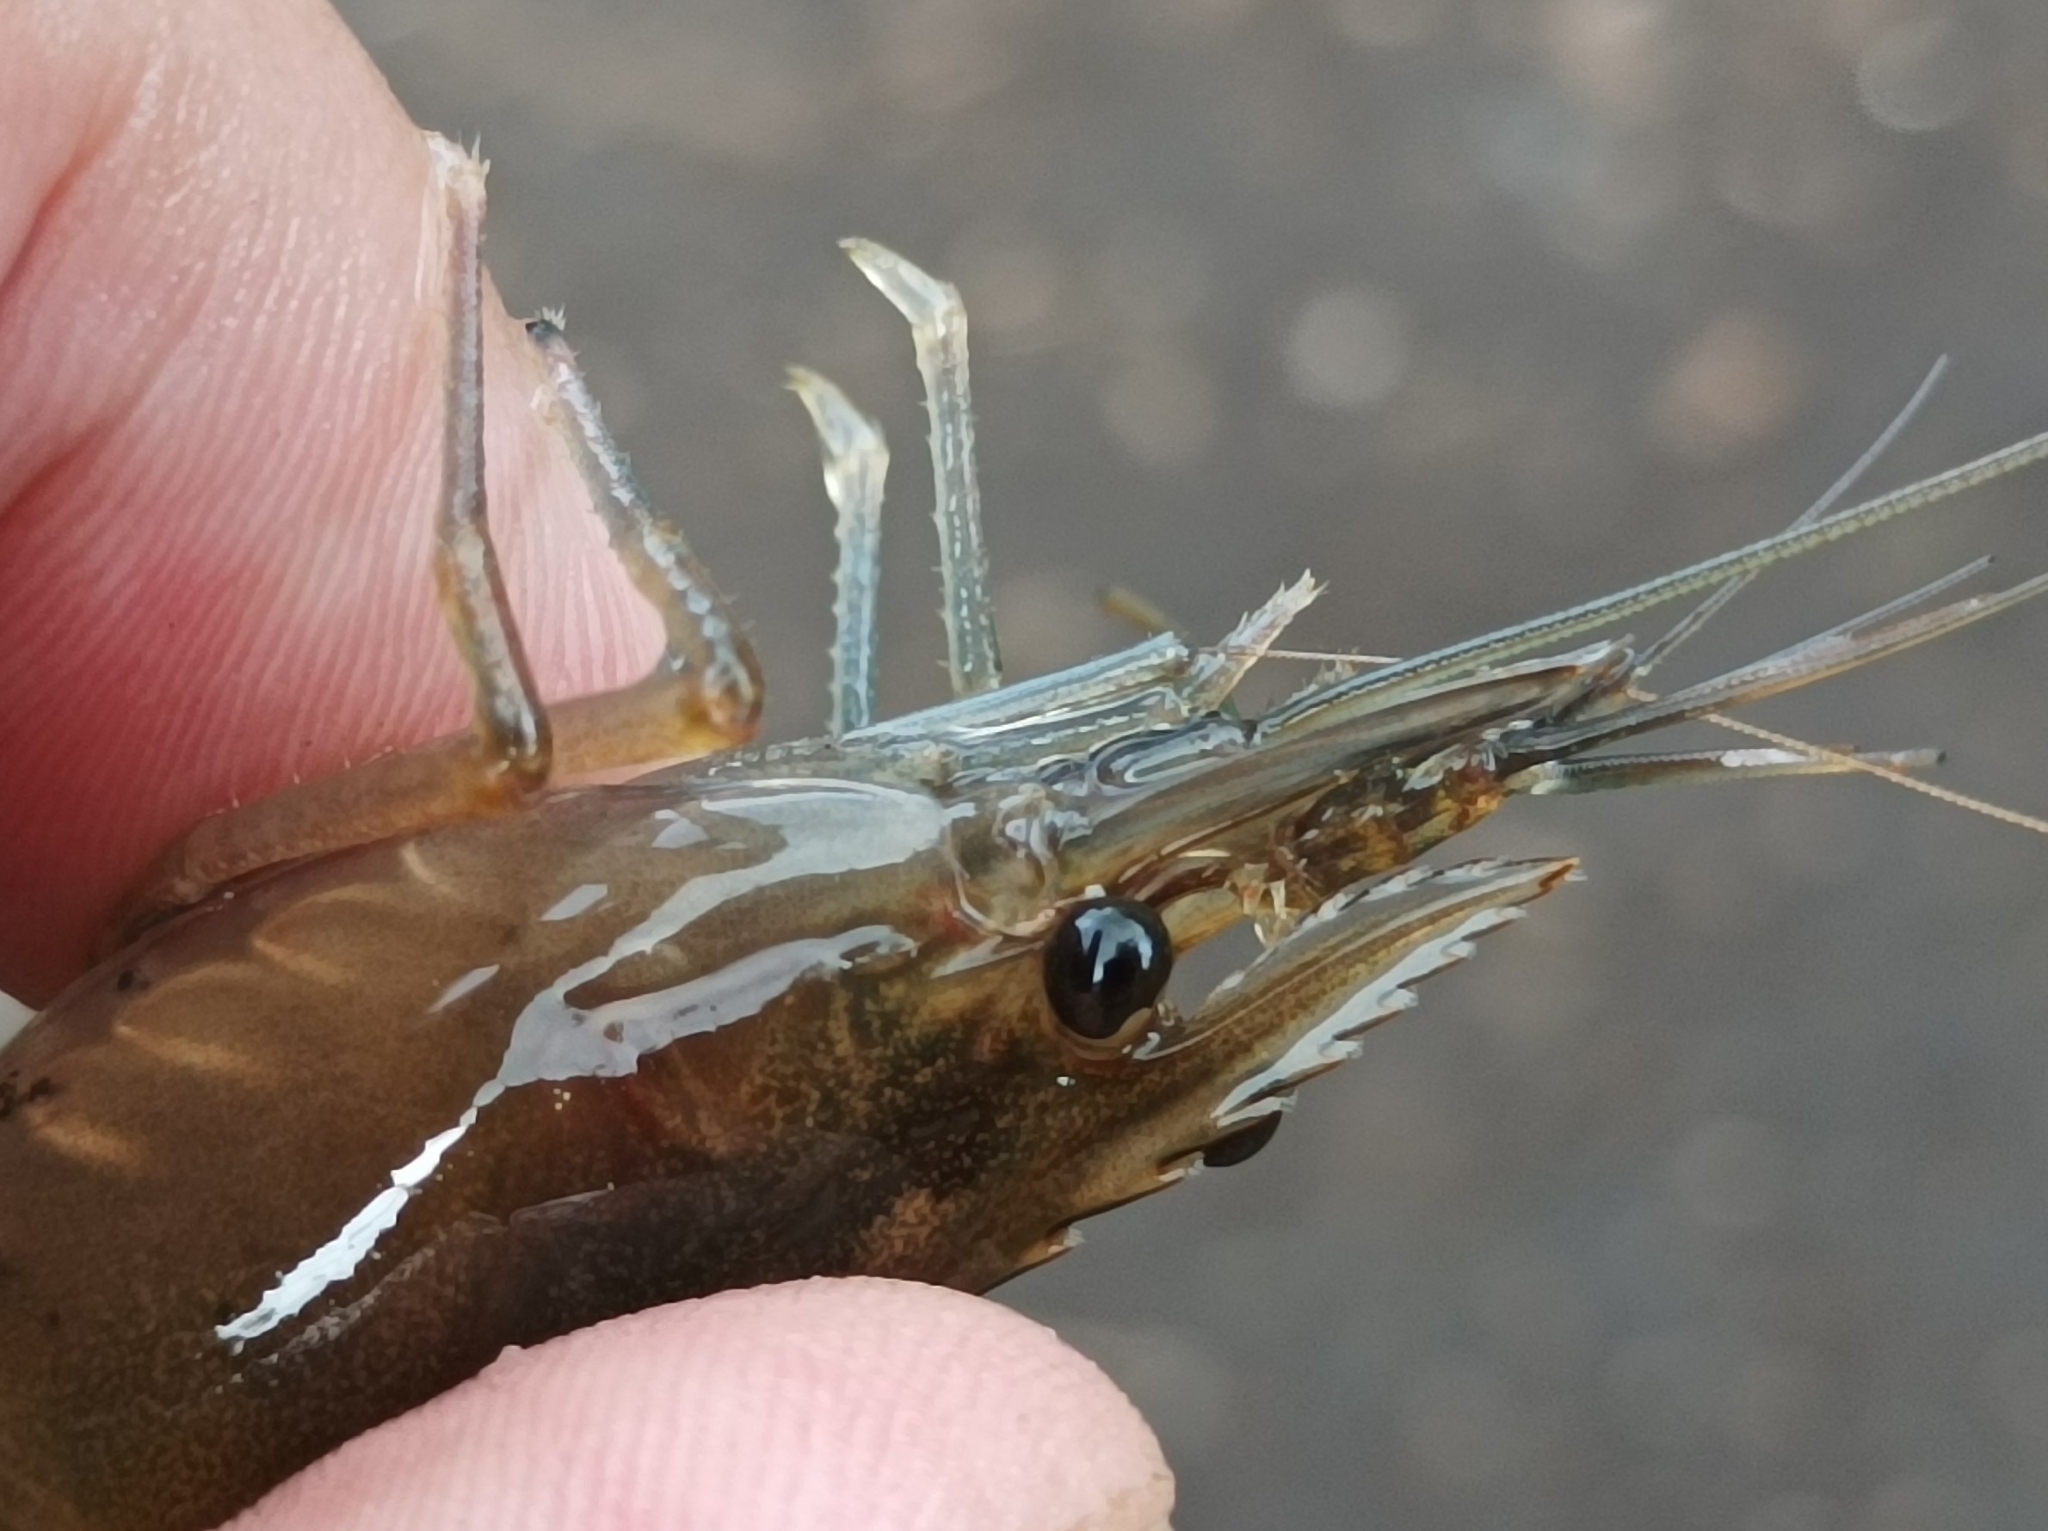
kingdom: Animalia
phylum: Arthropoda
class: Malacostraca
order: Decapoda
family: Palaemonidae
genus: Macrobrachium
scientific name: Macrobrachium lar
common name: Monkey river prawn
